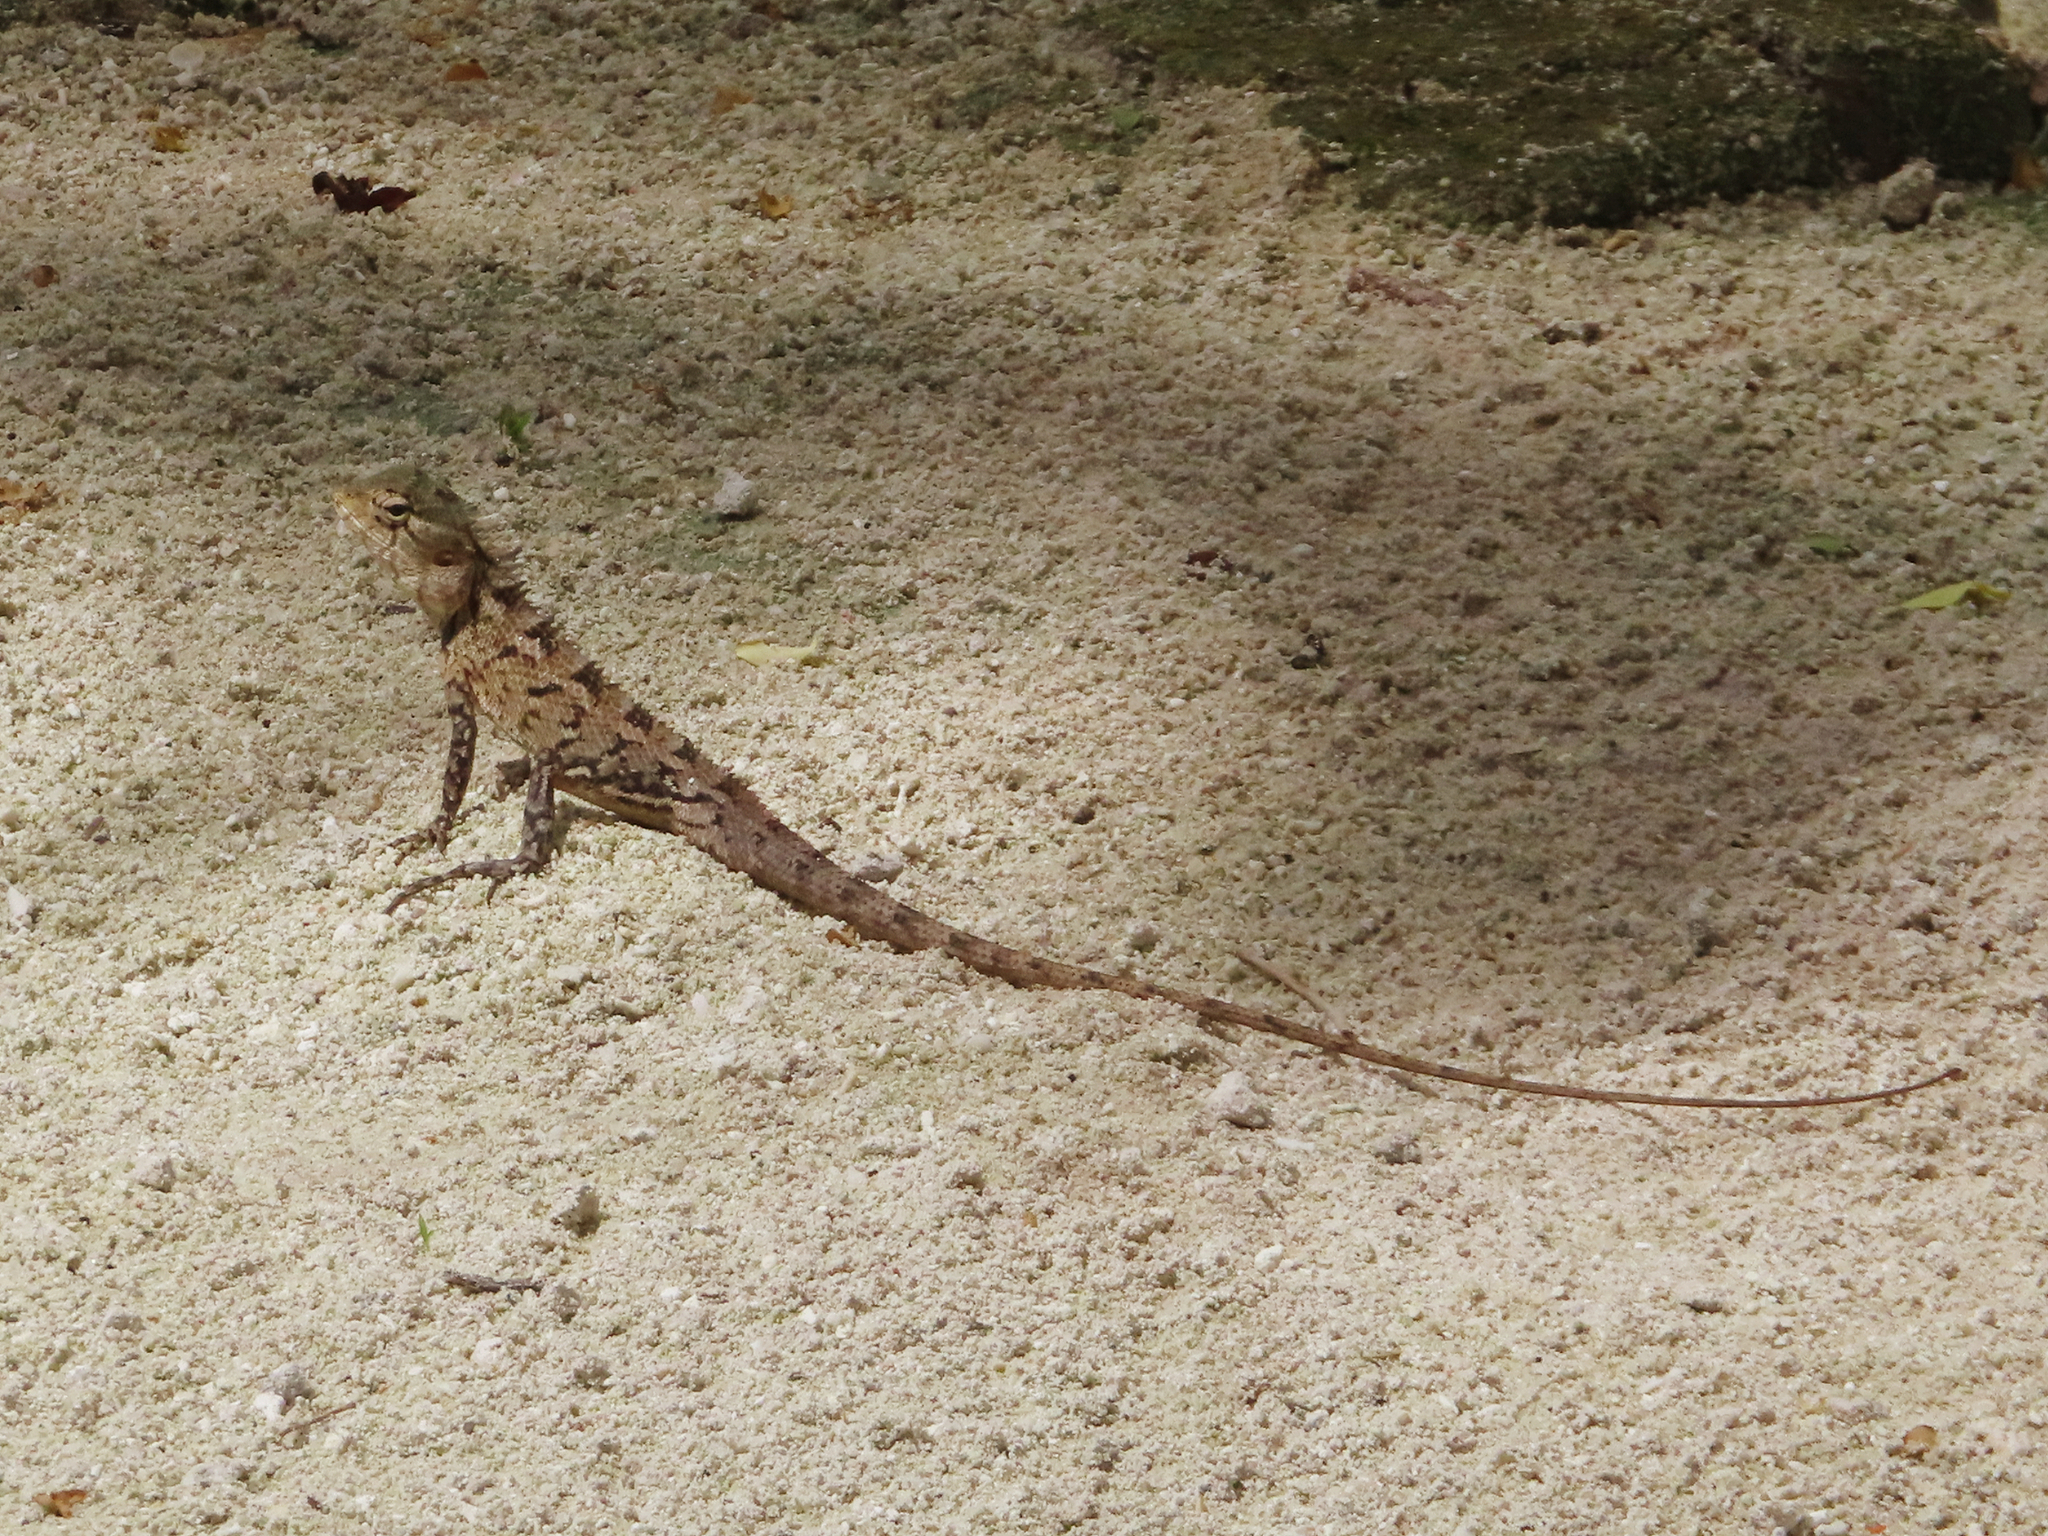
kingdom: Animalia
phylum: Chordata
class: Squamata
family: Agamidae
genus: Calotes
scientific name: Calotes versicolor
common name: Oriental garden lizard
